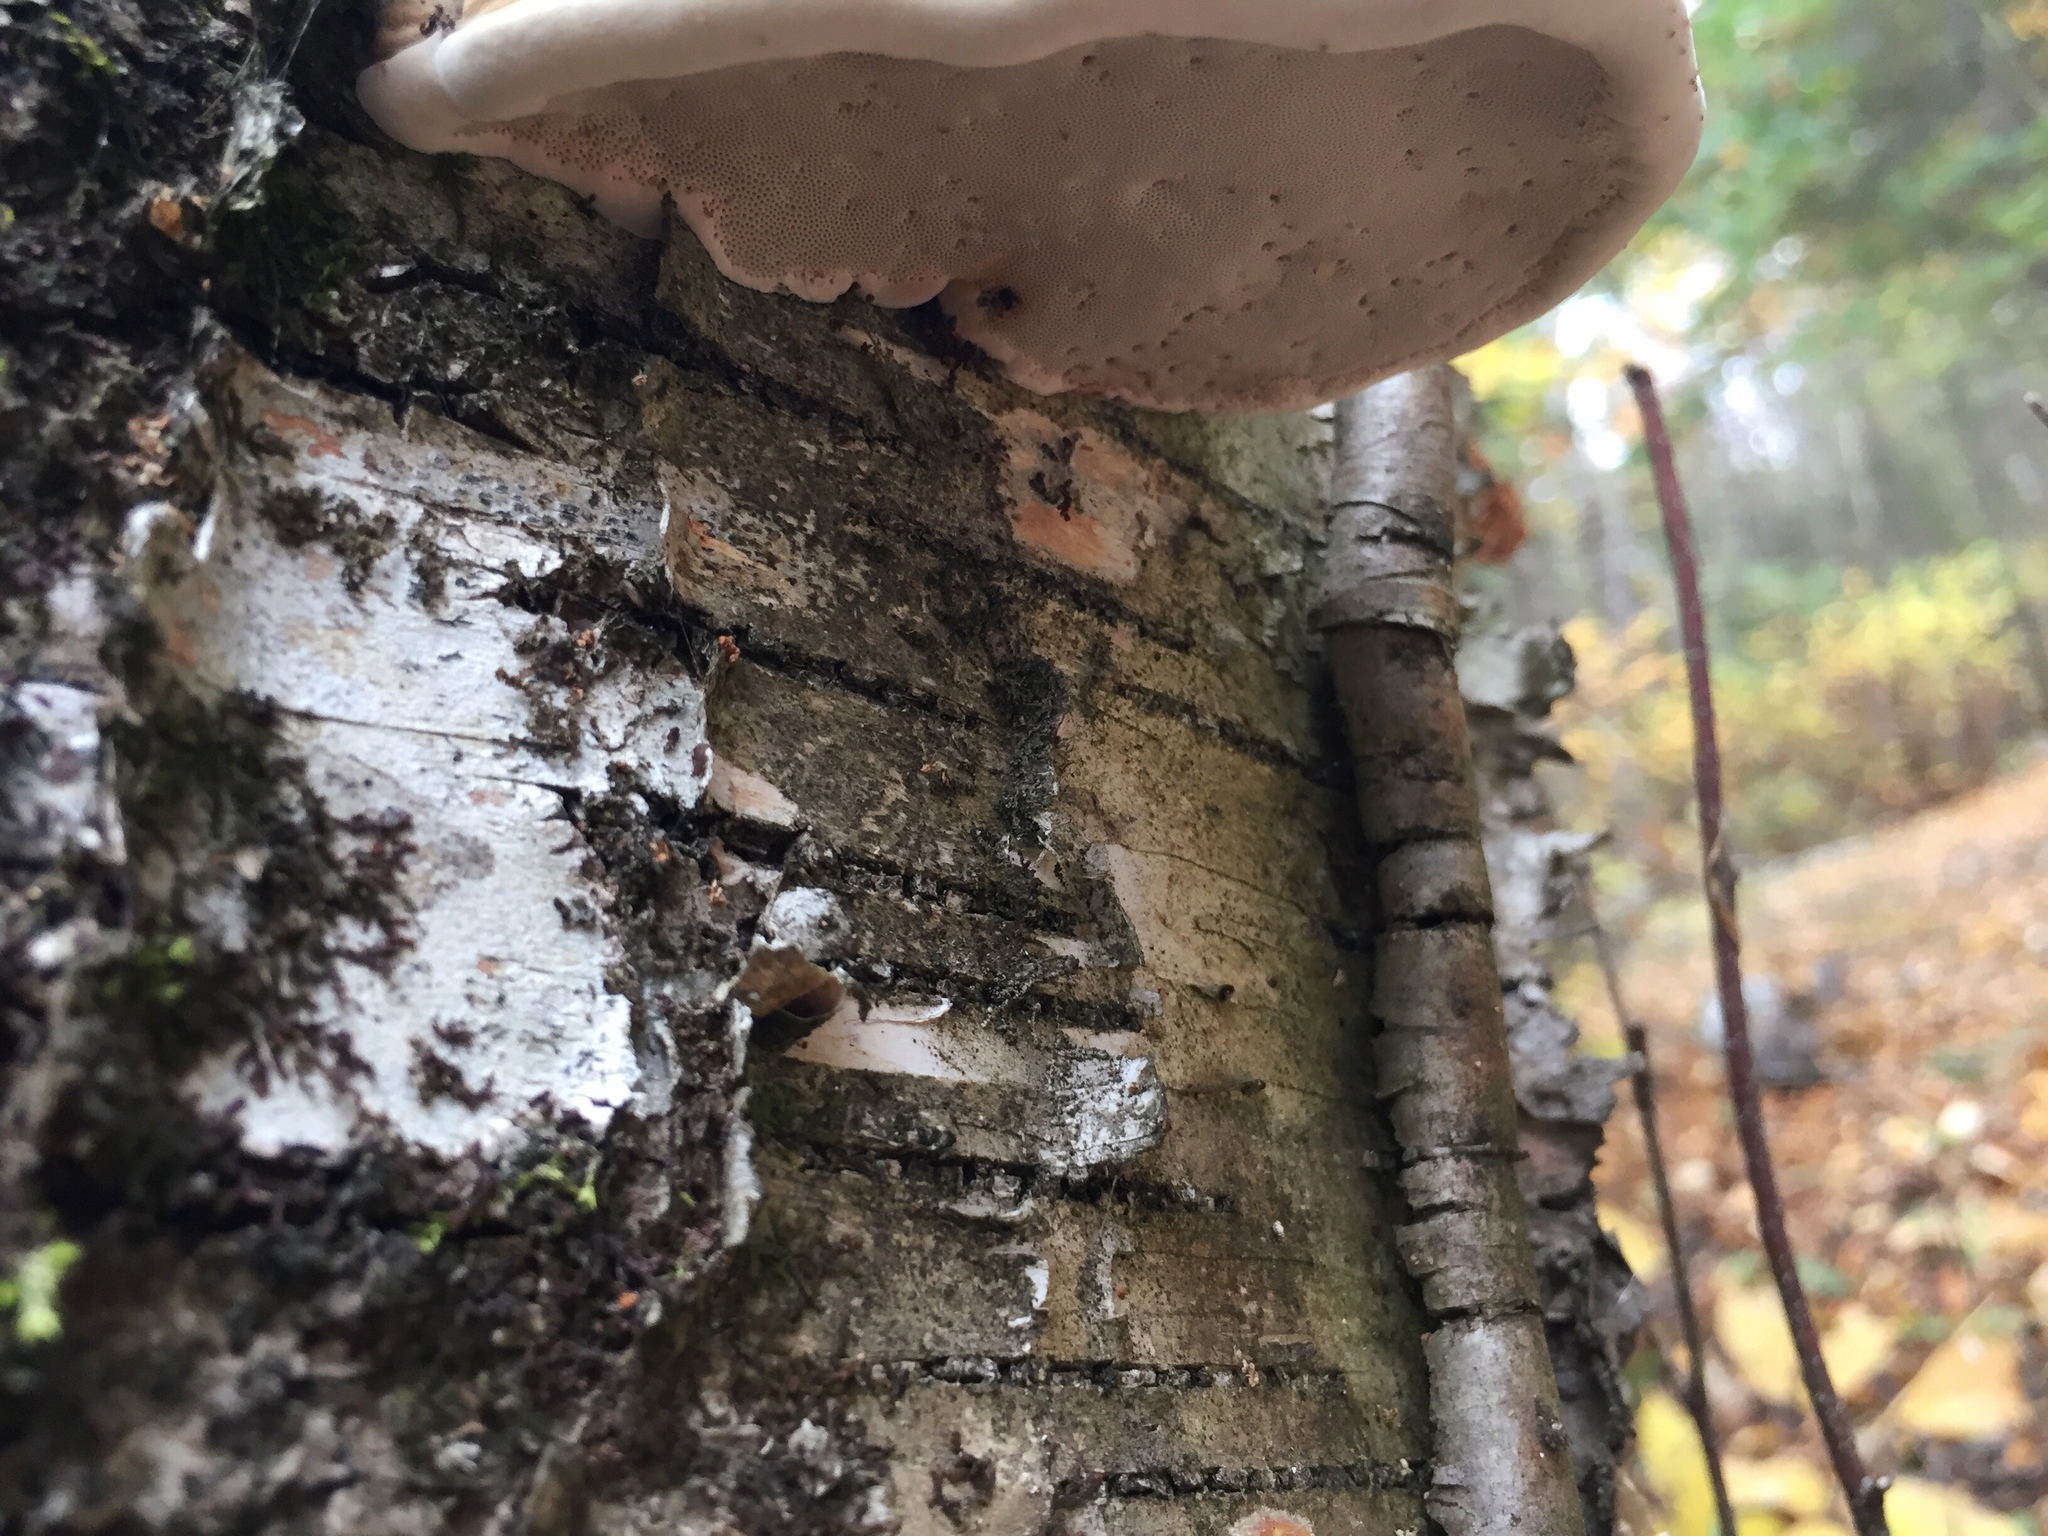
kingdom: Fungi
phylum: Basidiomycota
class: Agaricomycetes
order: Polyporales
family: Fomitopsidaceae
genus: Fomitopsis
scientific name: Fomitopsis betulina
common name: Birch polypore
